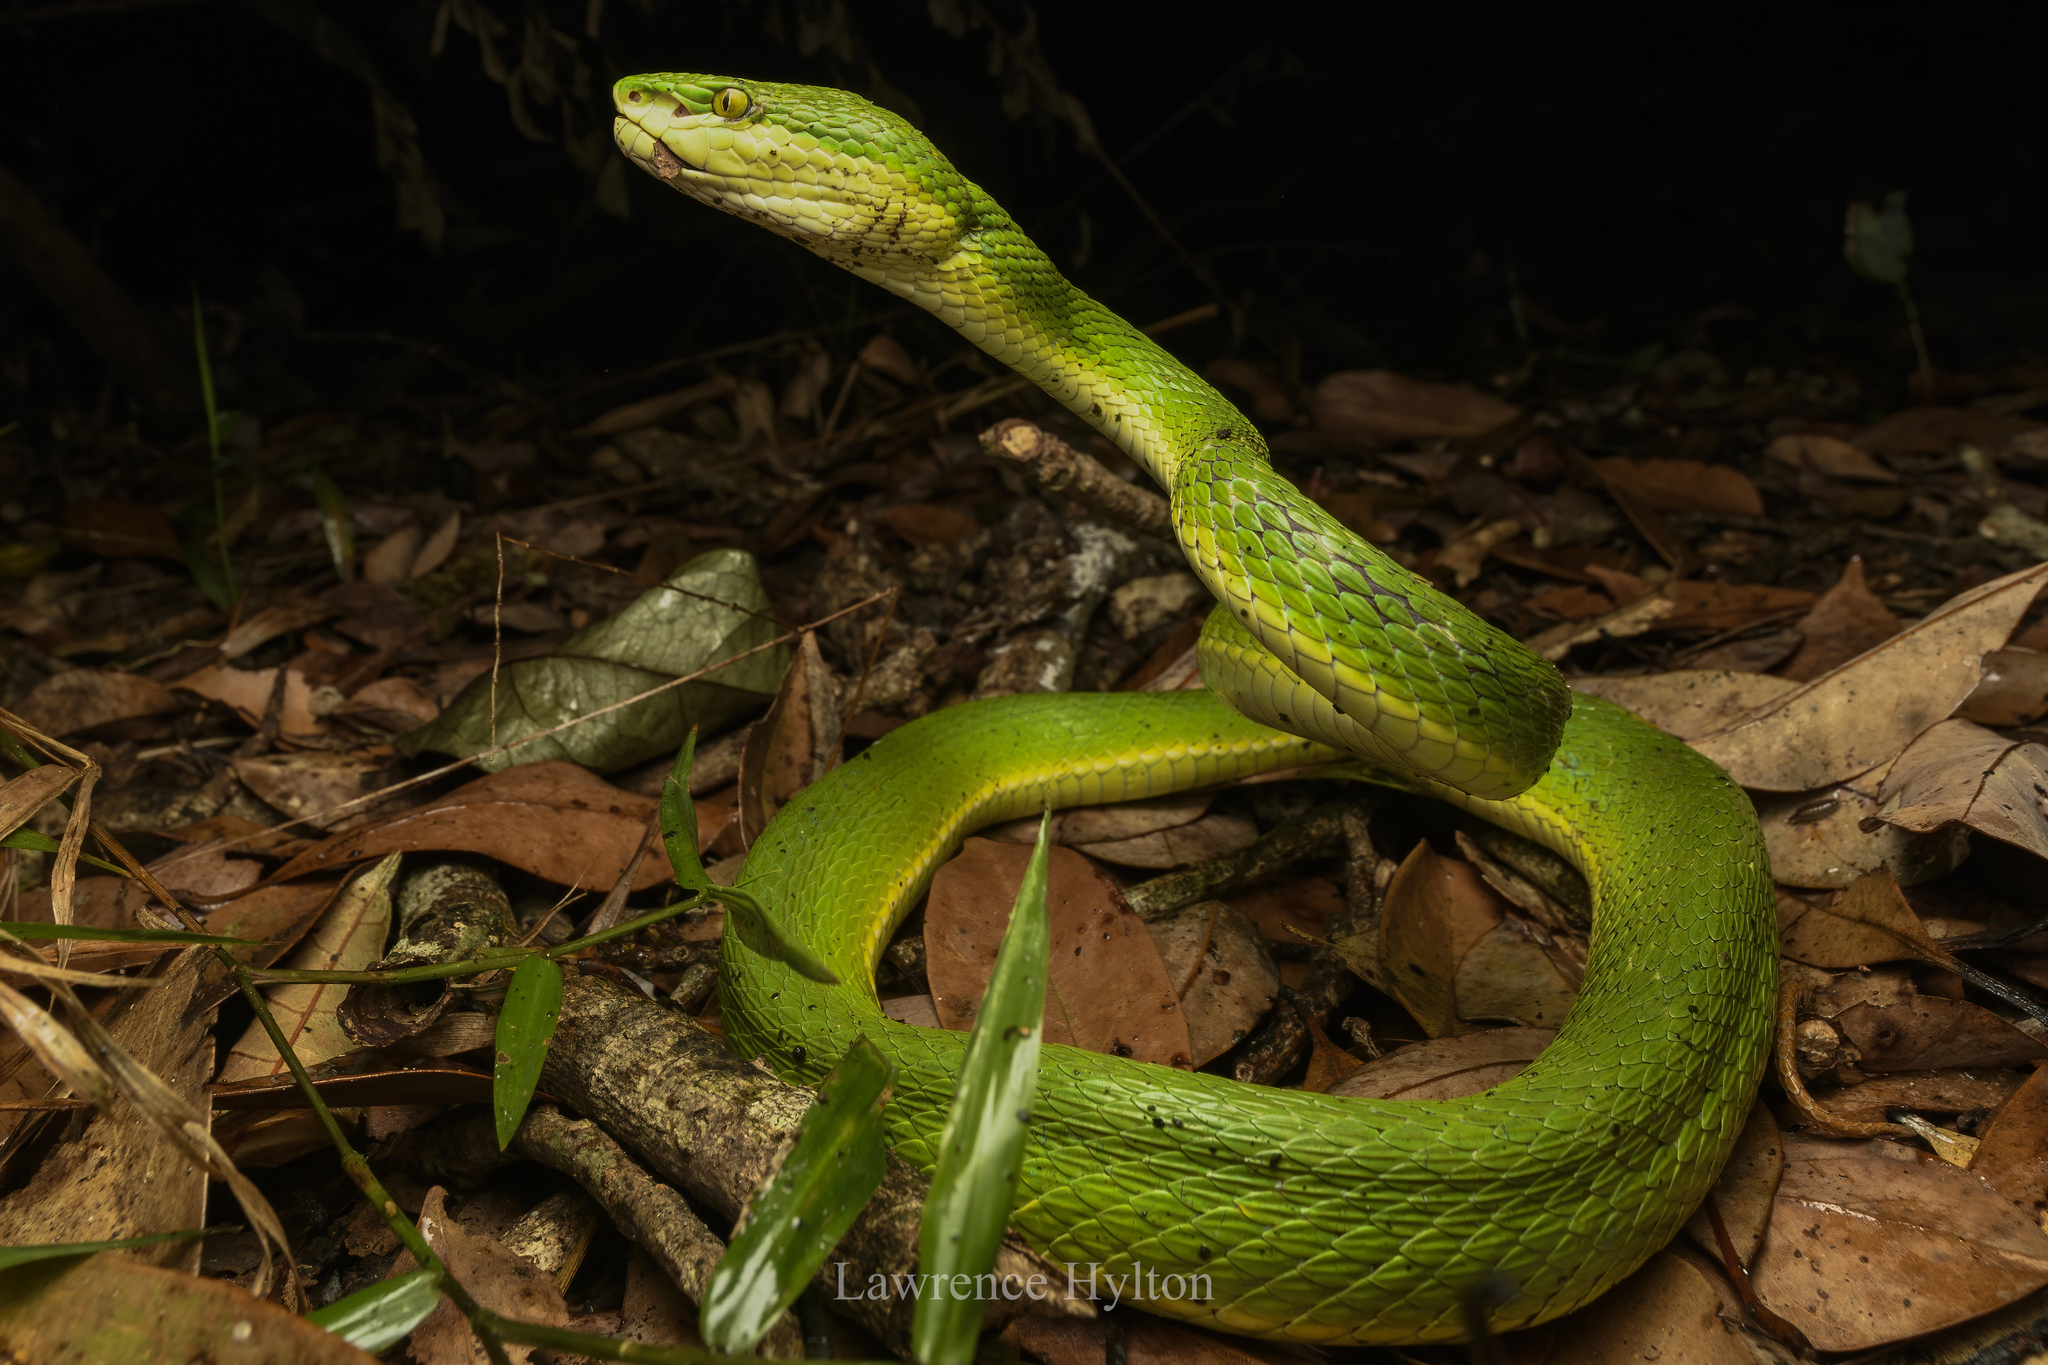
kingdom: Animalia
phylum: Chordata
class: Squamata
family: Viperidae
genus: Trimeresurus
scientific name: Trimeresurus albolabris
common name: White-lipped pitviper
